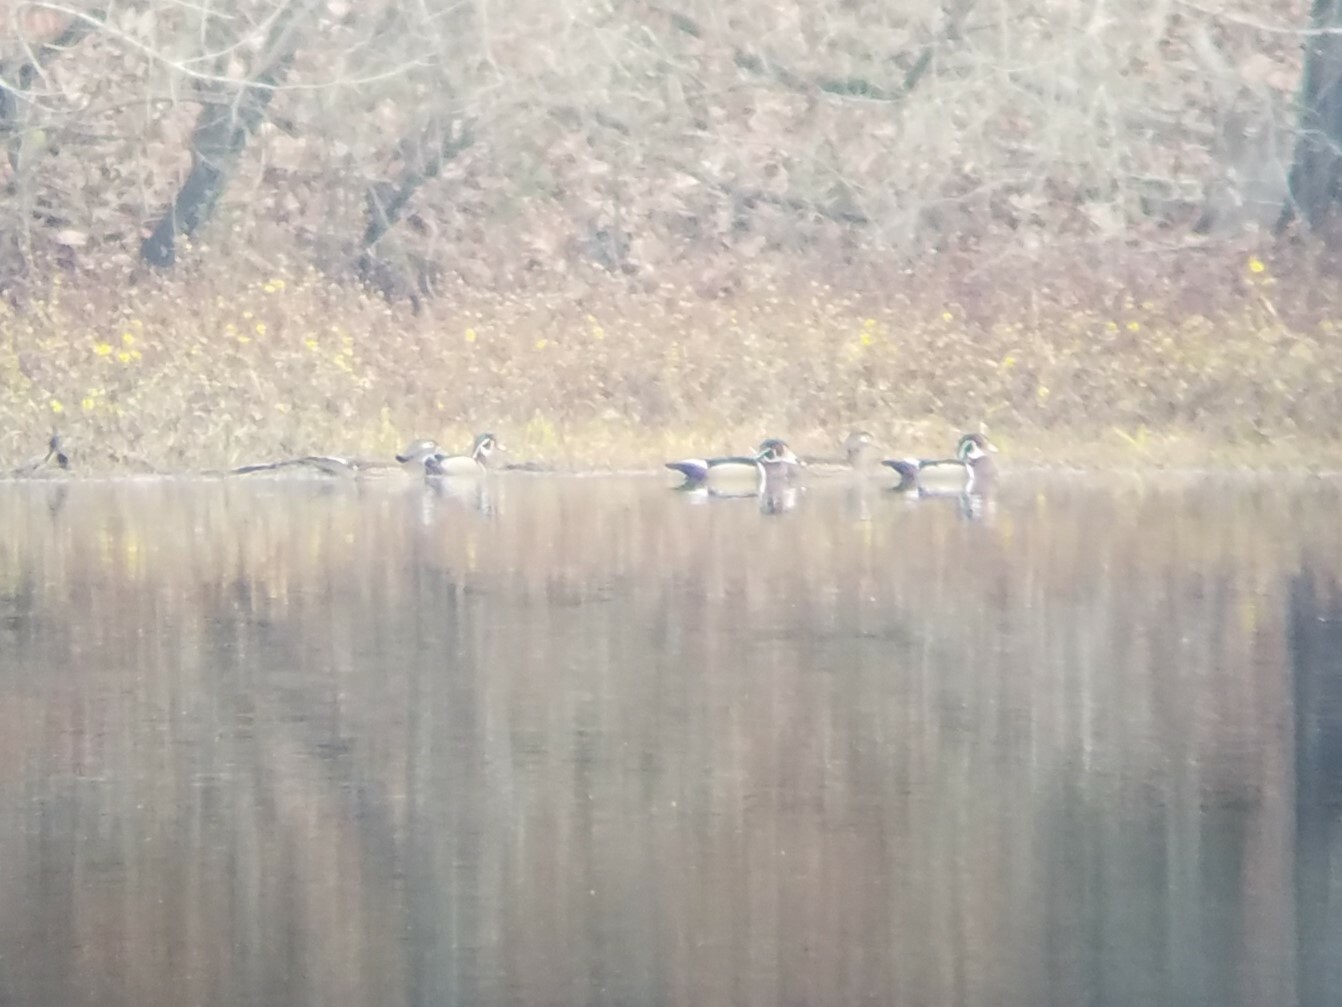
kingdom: Animalia
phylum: Chordata
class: Aves
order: Anseriformes
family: Anatidae
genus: Aix
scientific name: Aix sponsa
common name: Wood duck
